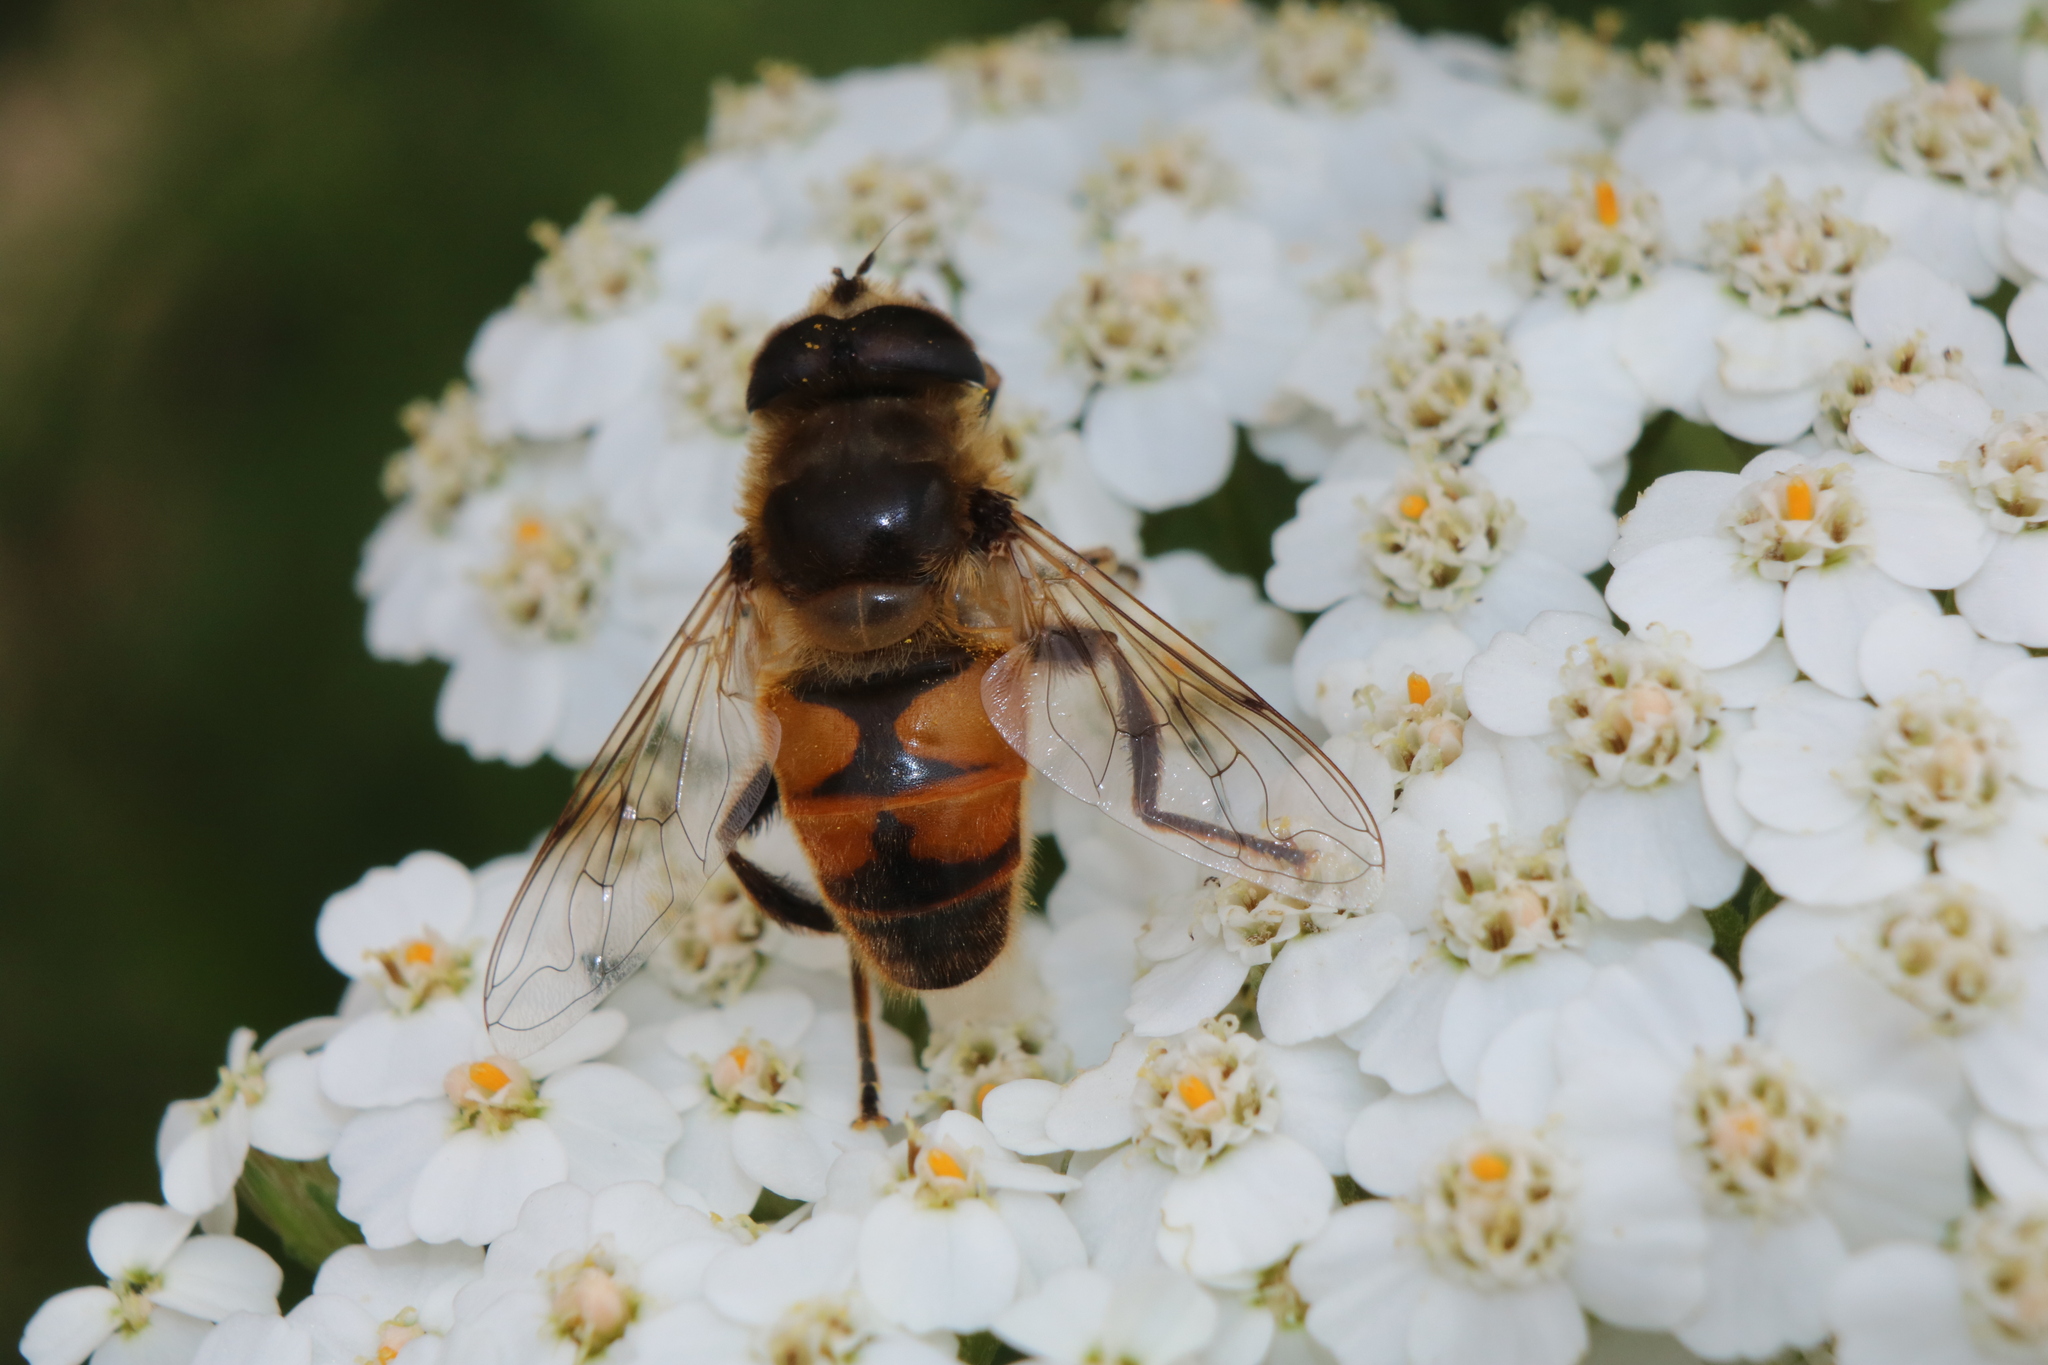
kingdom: Animalia
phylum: Arthropoda
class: Insecta
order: Diptera
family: Syrphidae
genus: Eristalis
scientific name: Eristalis tenax
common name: Drone fly
